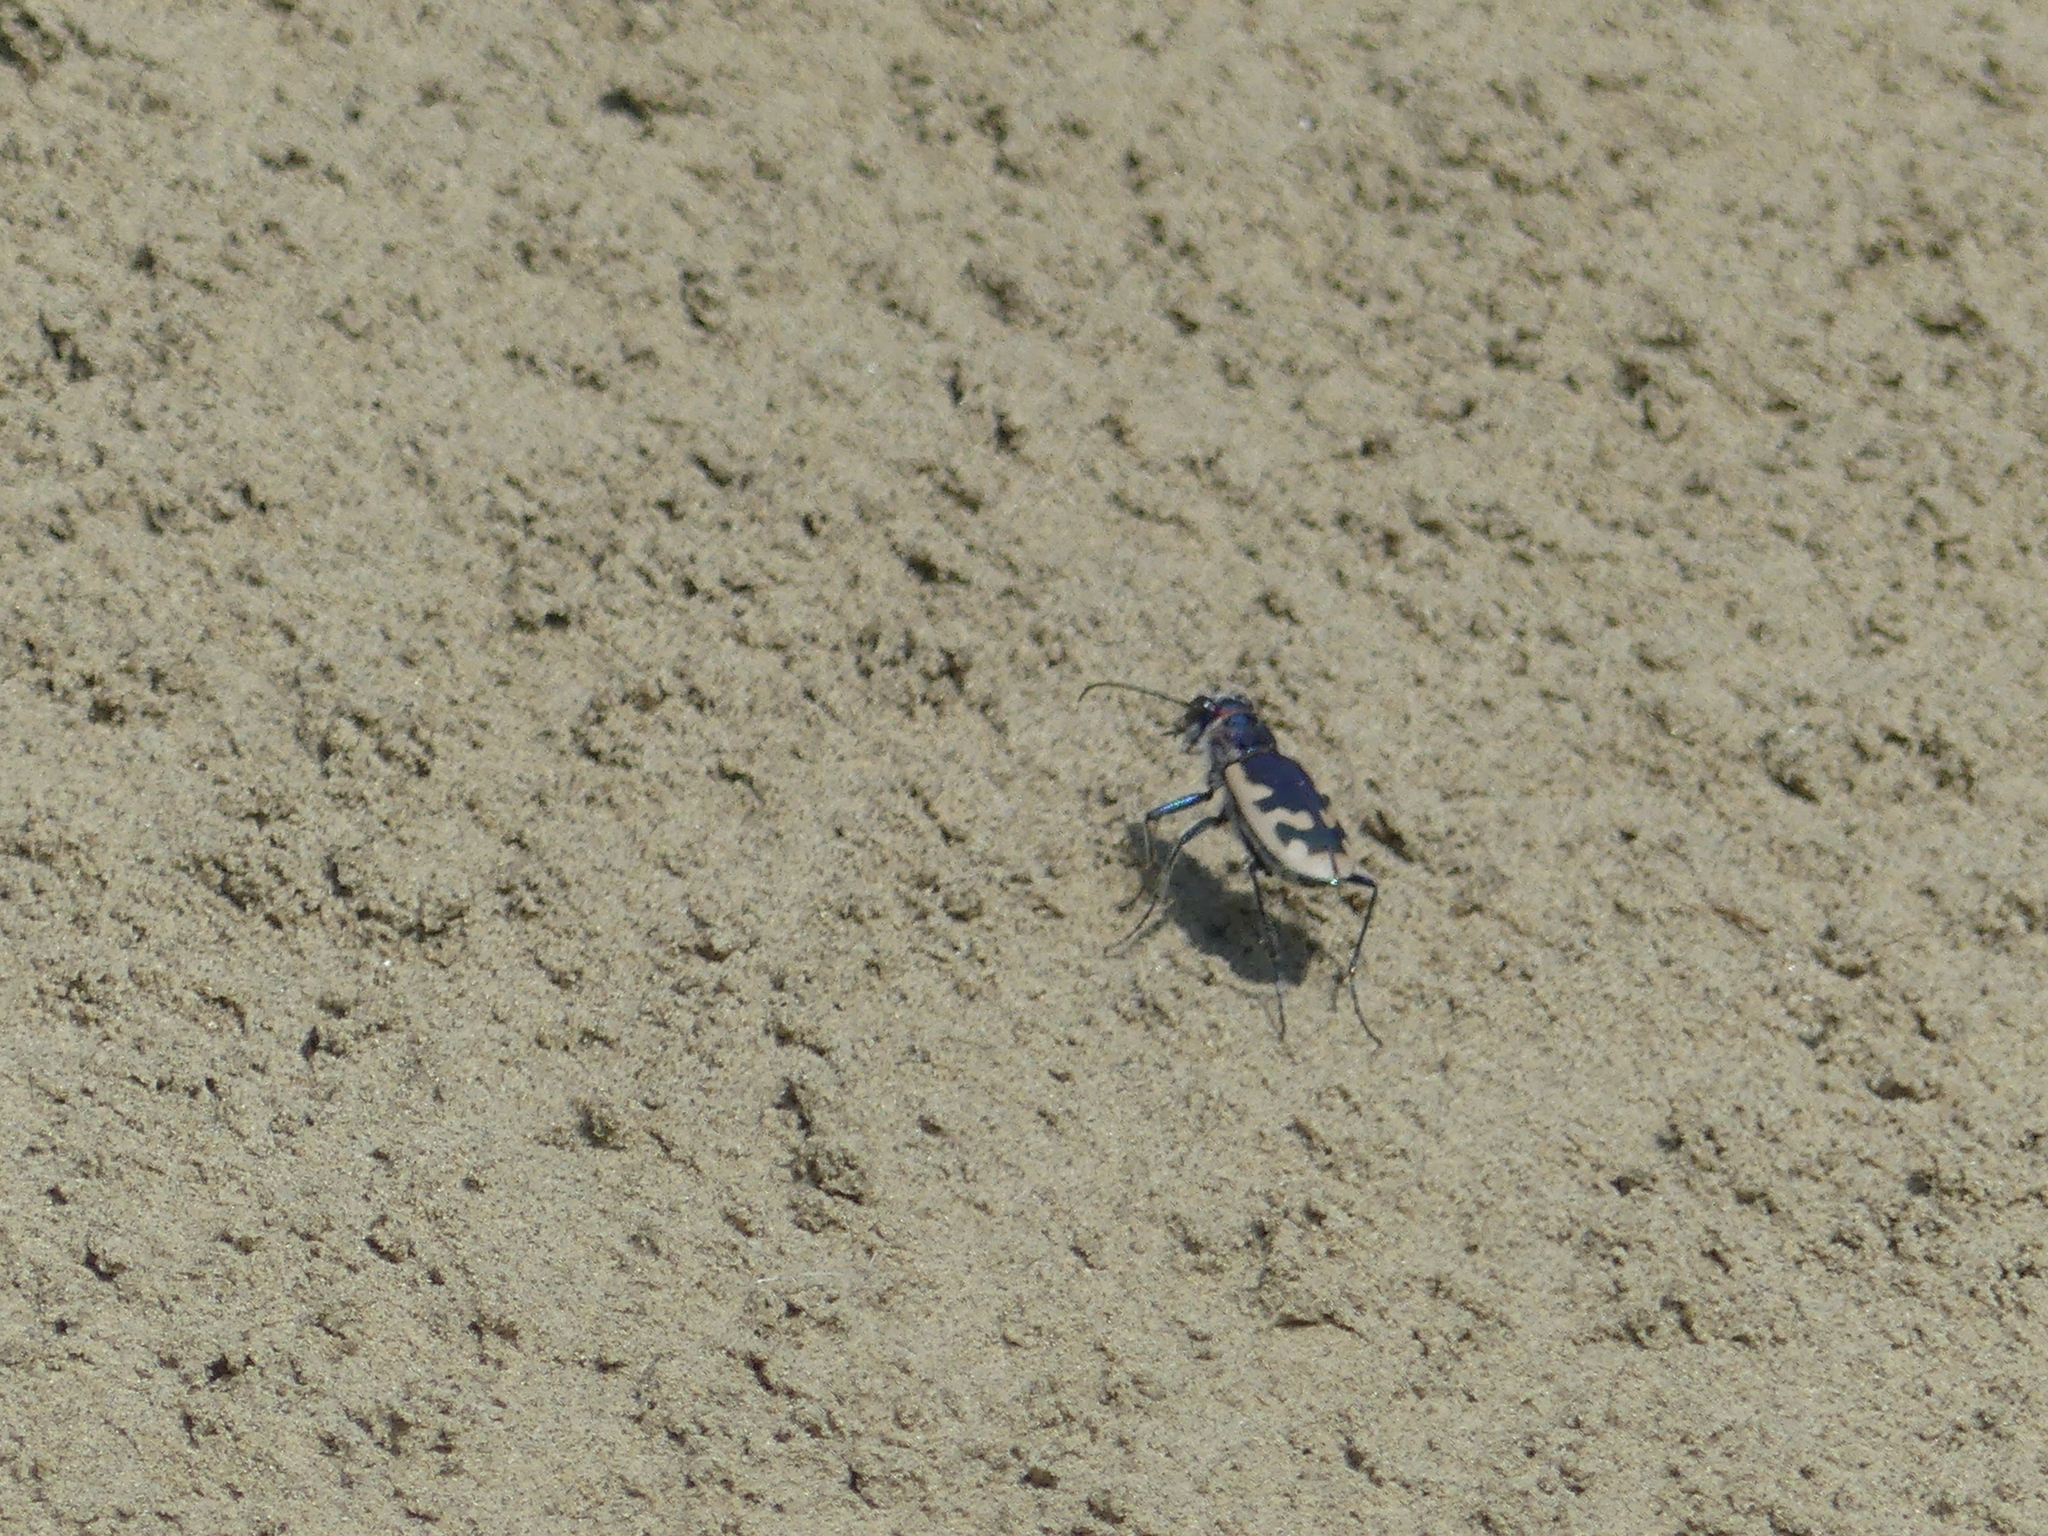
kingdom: Animalia
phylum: Arthropoda
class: Insecta
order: Coleoptera
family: Carabidae
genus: Cicindela
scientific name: Cicindela formosa
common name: Big sand tiger beetle
